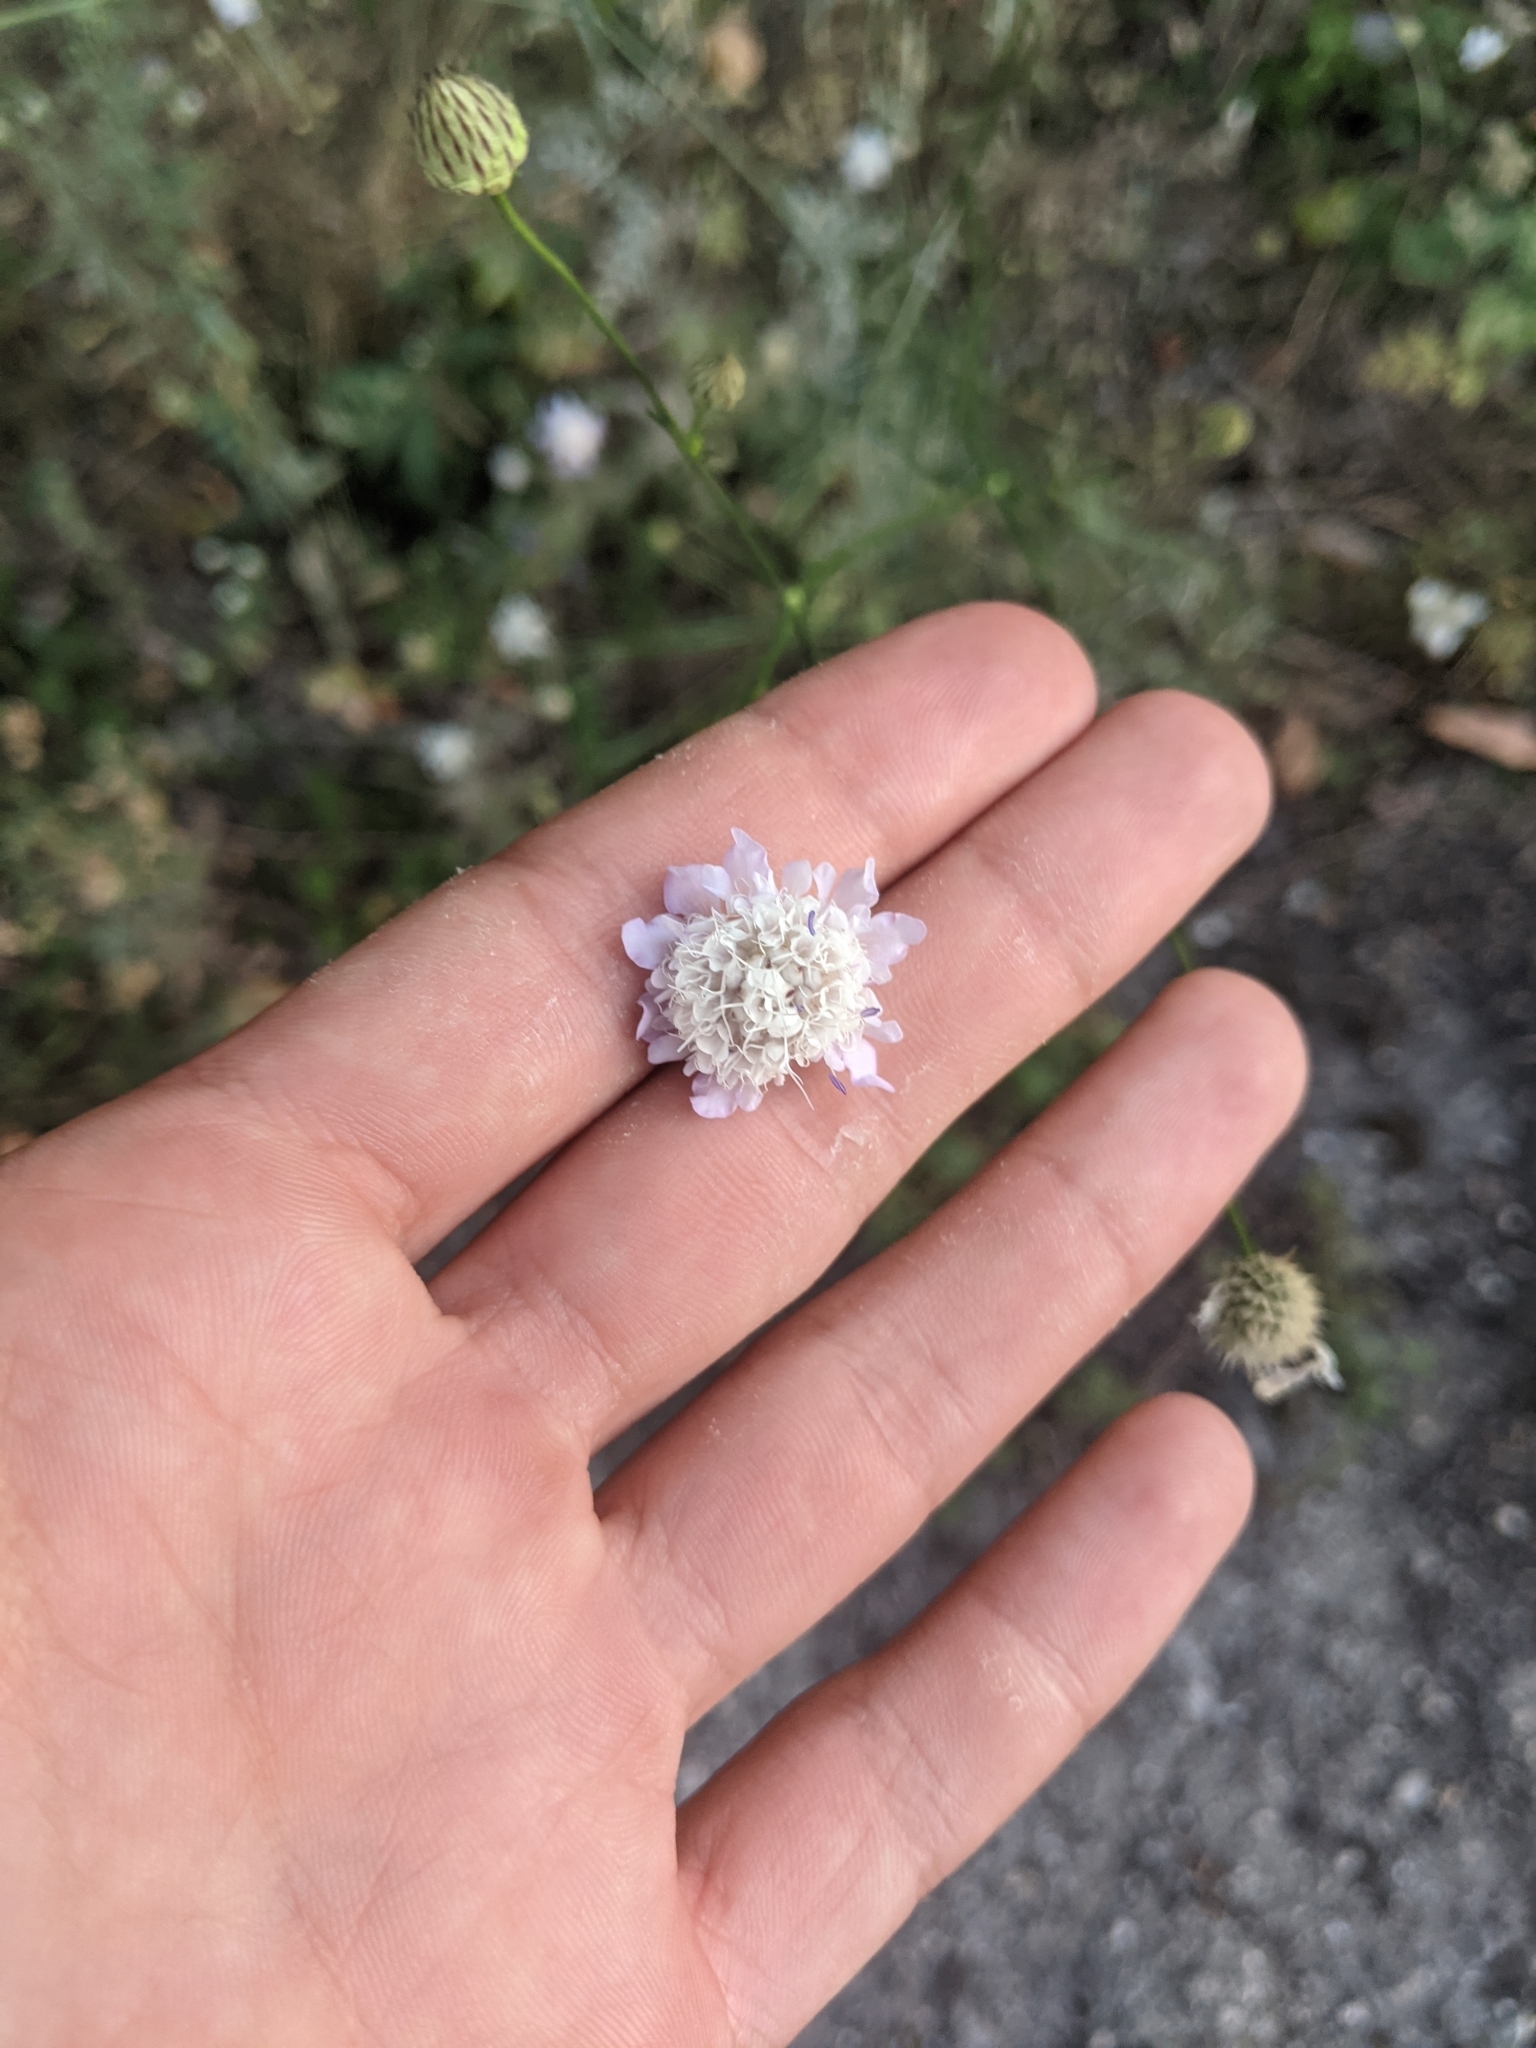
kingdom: Plantae
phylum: Tracheophyta
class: Magnoliopsida
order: Dipsacales
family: Caprifoliaceae
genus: Cephalaria
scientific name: Cephalaria transsylvanica
